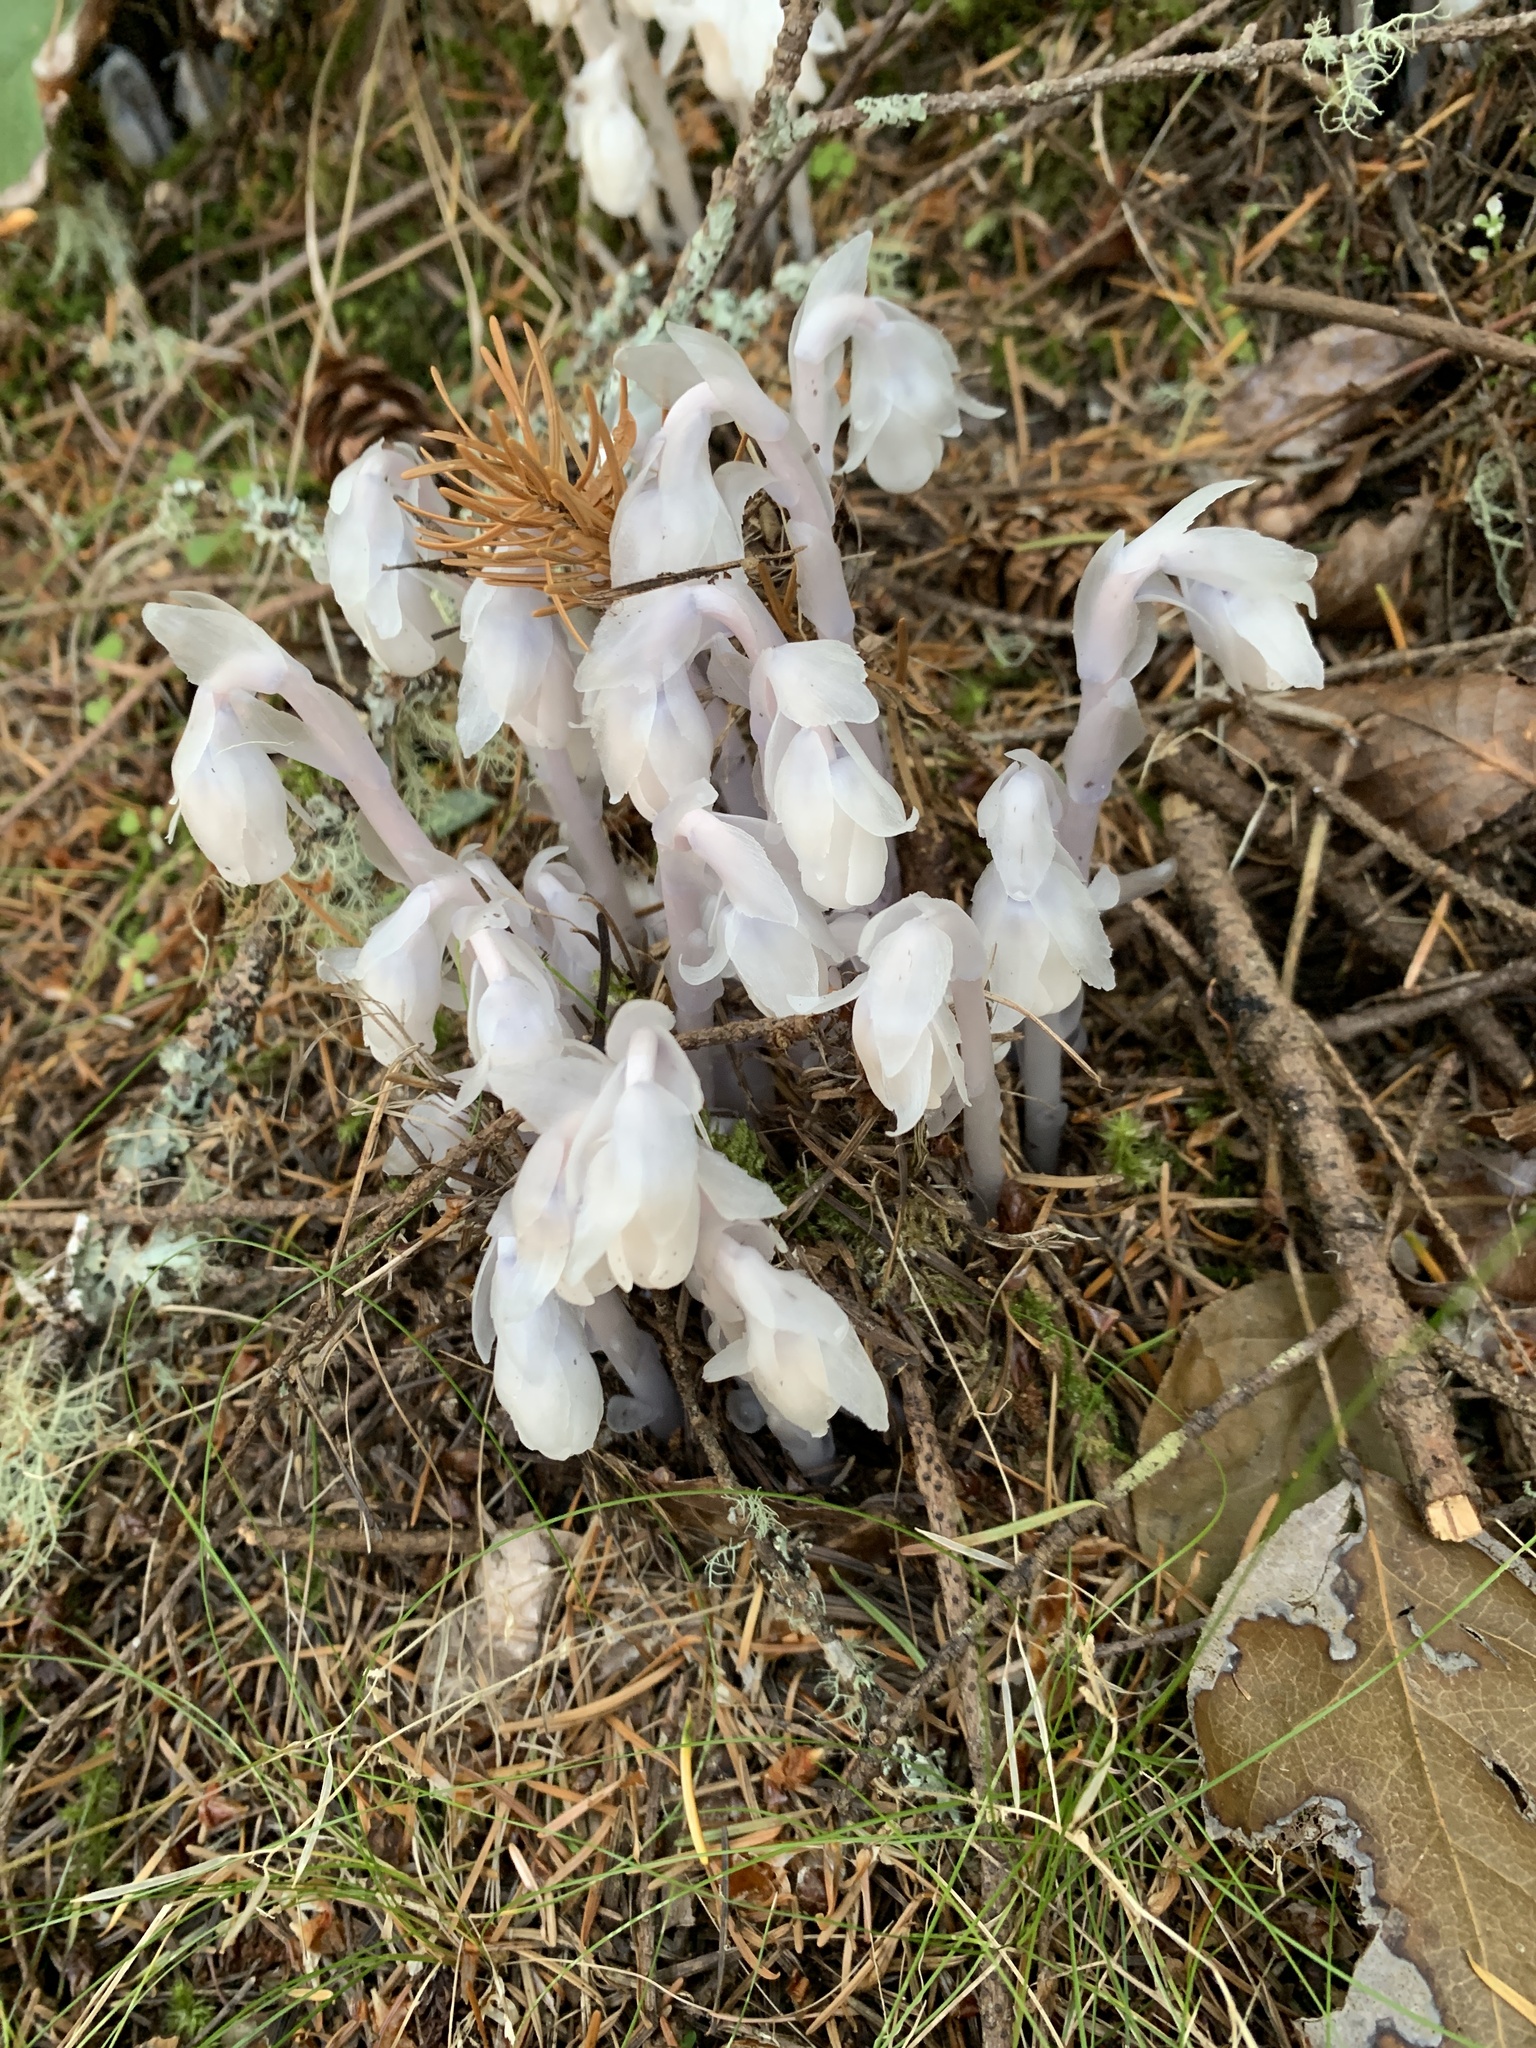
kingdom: Plantae
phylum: Tracheophyta
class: Magnoliopsida
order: Ericales
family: Ericaceae
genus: Monotropa
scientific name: Monotropa uniflora
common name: Convulsion root
